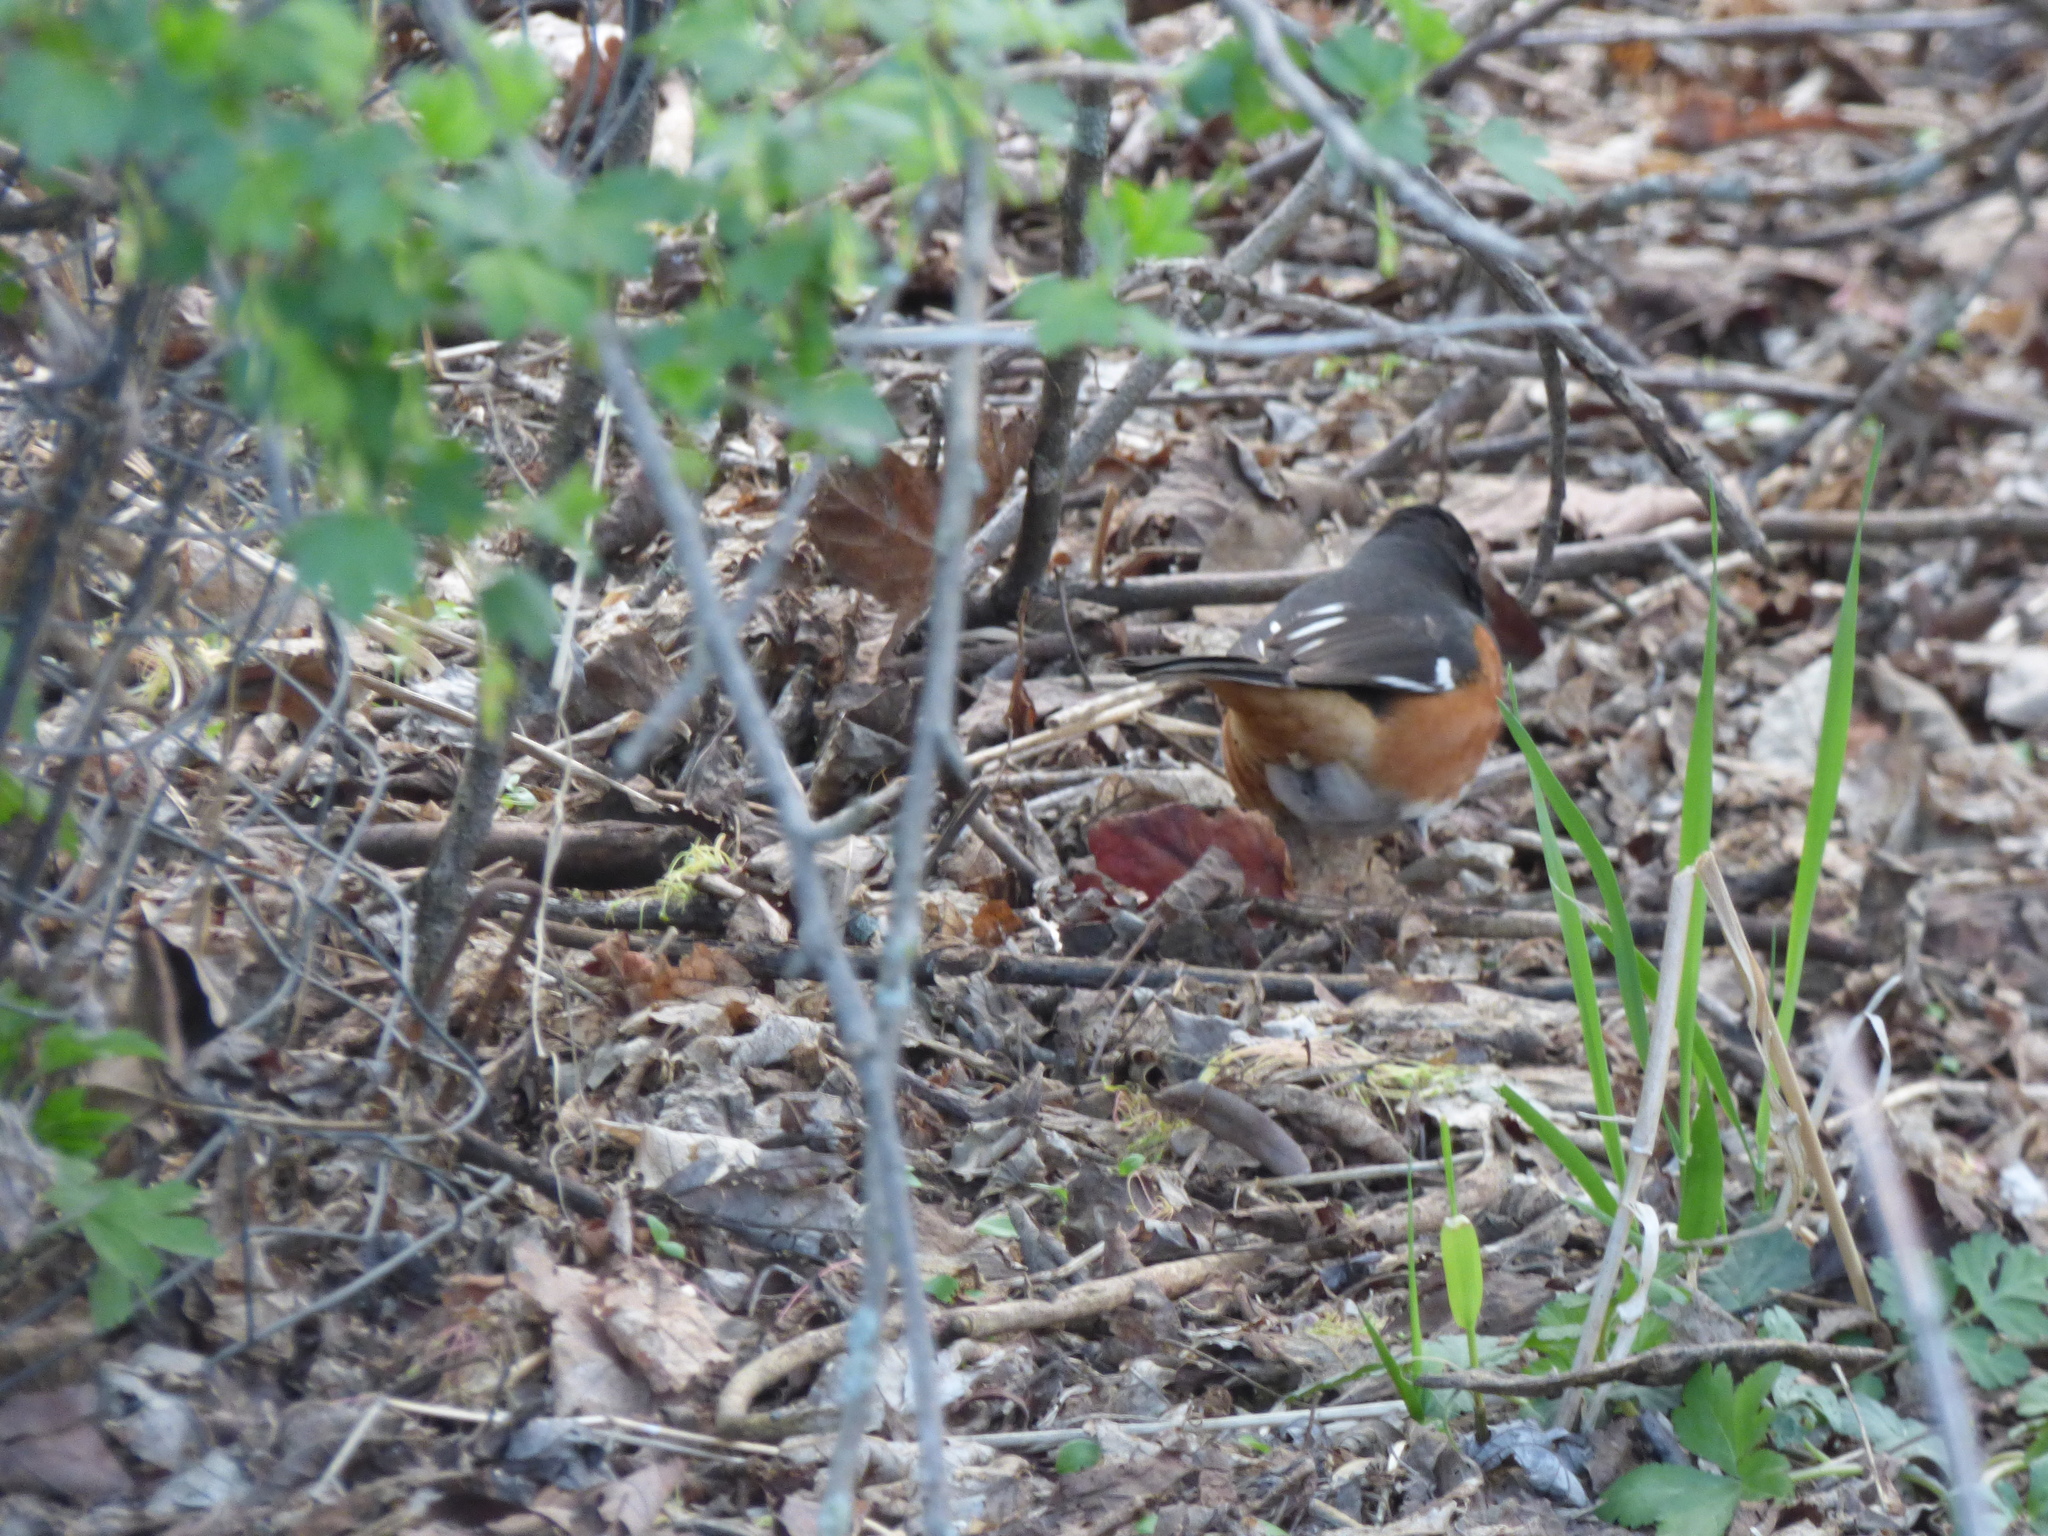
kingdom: Animalia
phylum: Chordata
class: Aves
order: Passeriformes
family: Passerellidae
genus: Pipilo
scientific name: Pipilo erythrophthalmus
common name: Eastern towhee
